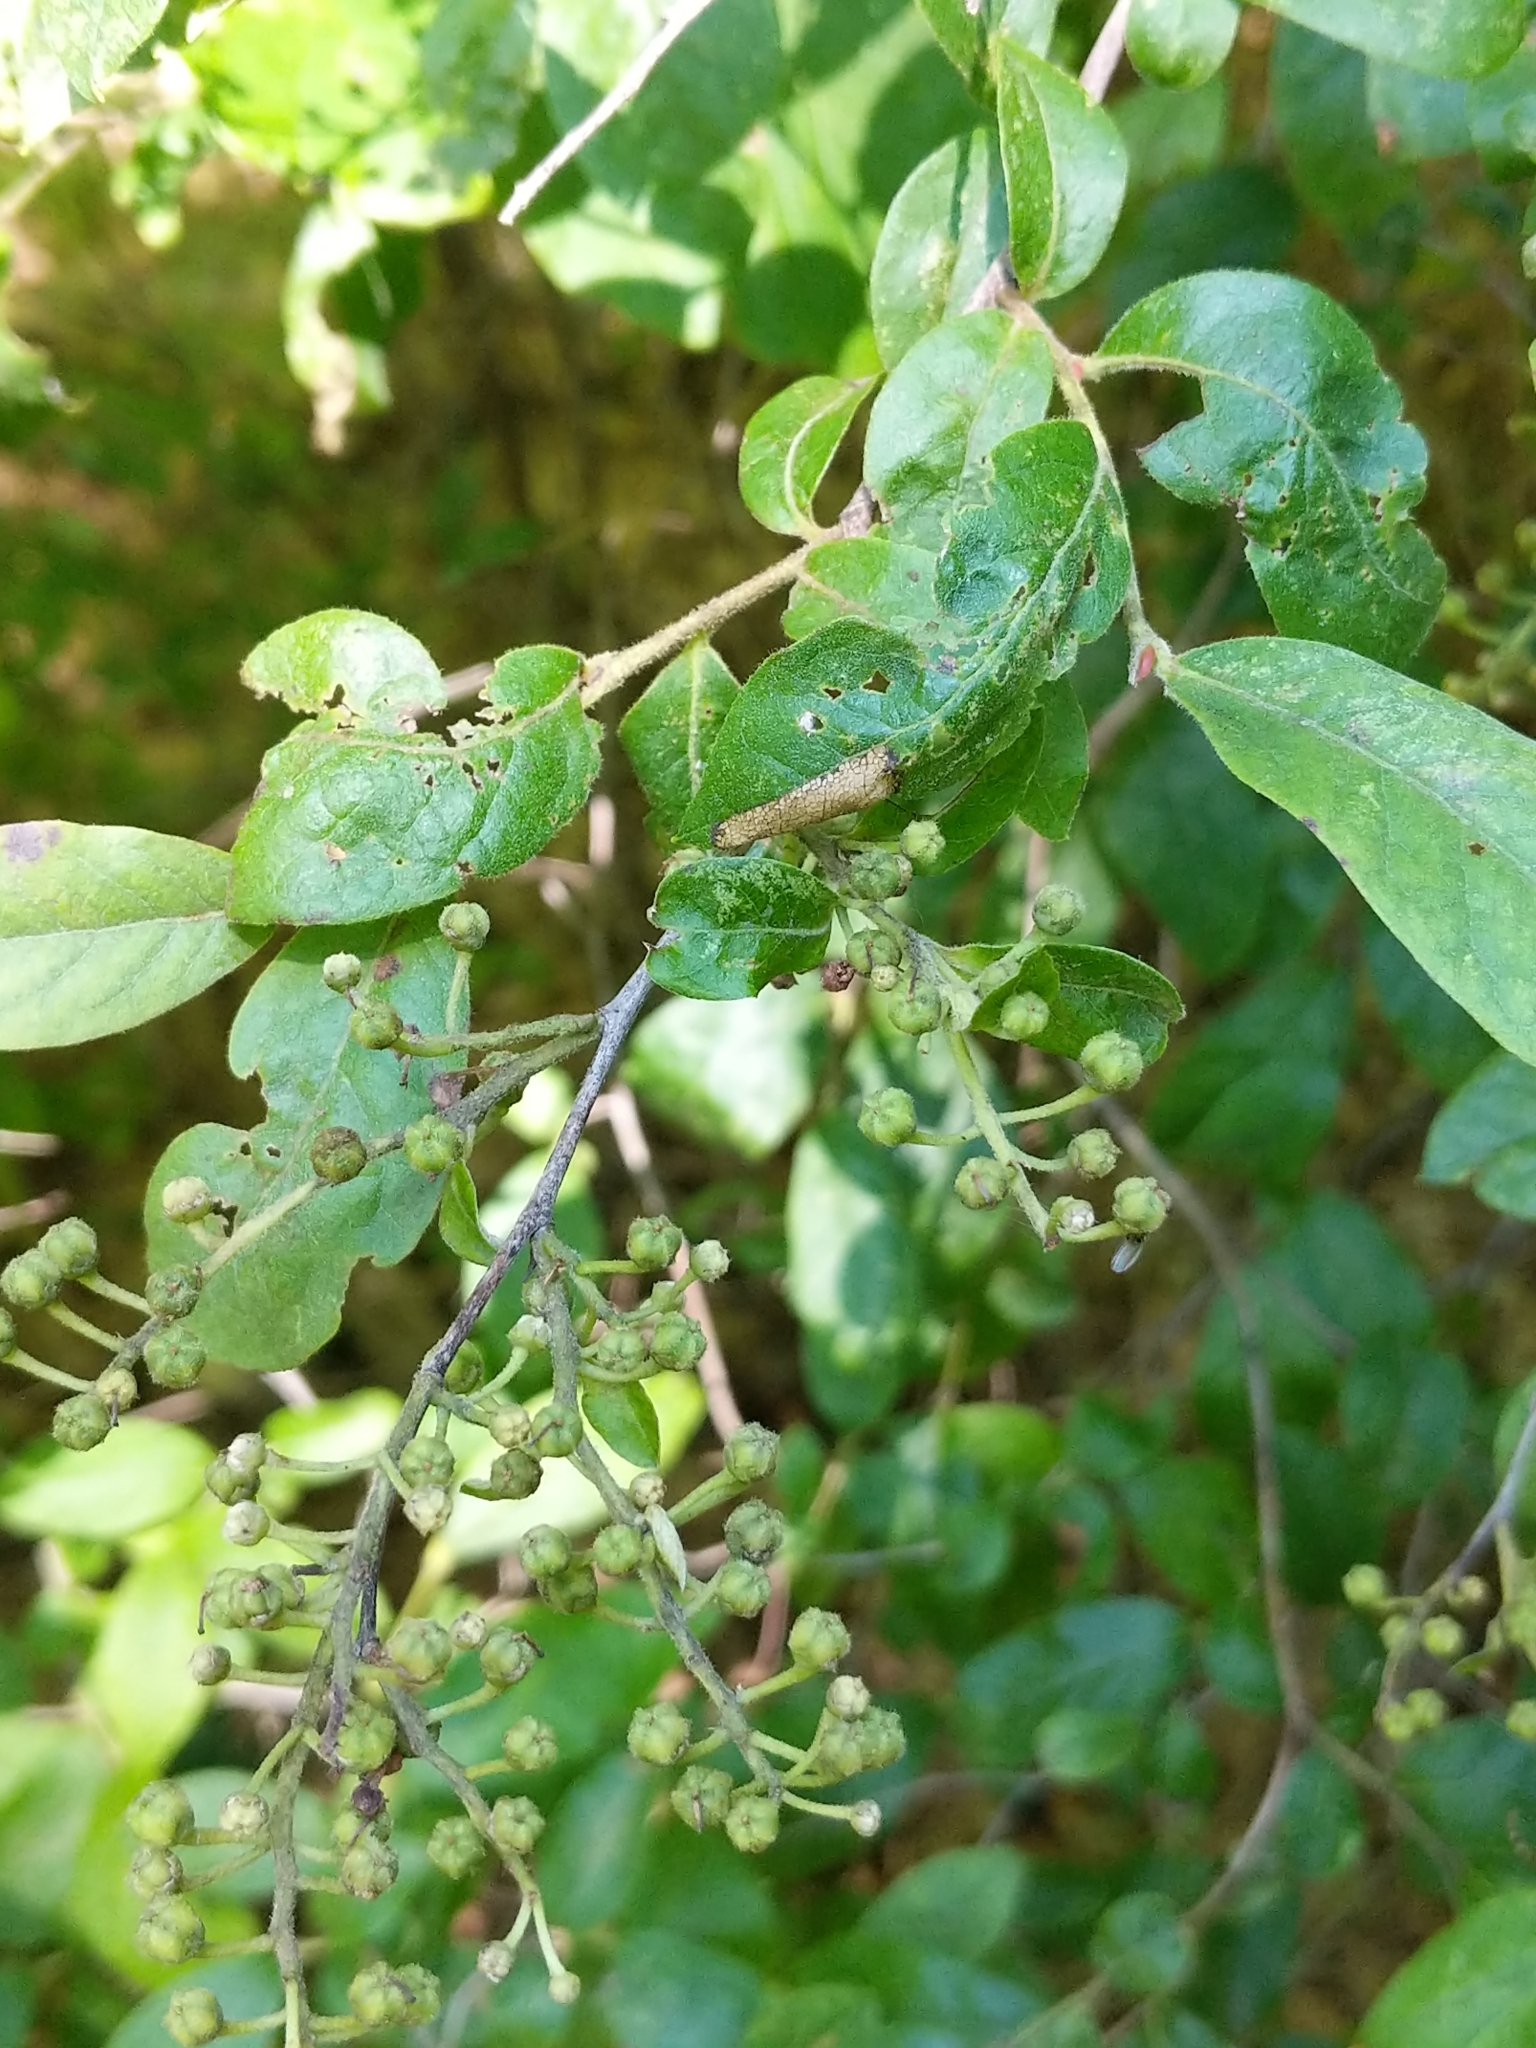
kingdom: Plantae
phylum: Tracheophyta
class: Magnoliopsida
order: Ericales
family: Ericaceae
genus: Lyonia
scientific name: Lyonia ligustrina
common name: Maleberry
